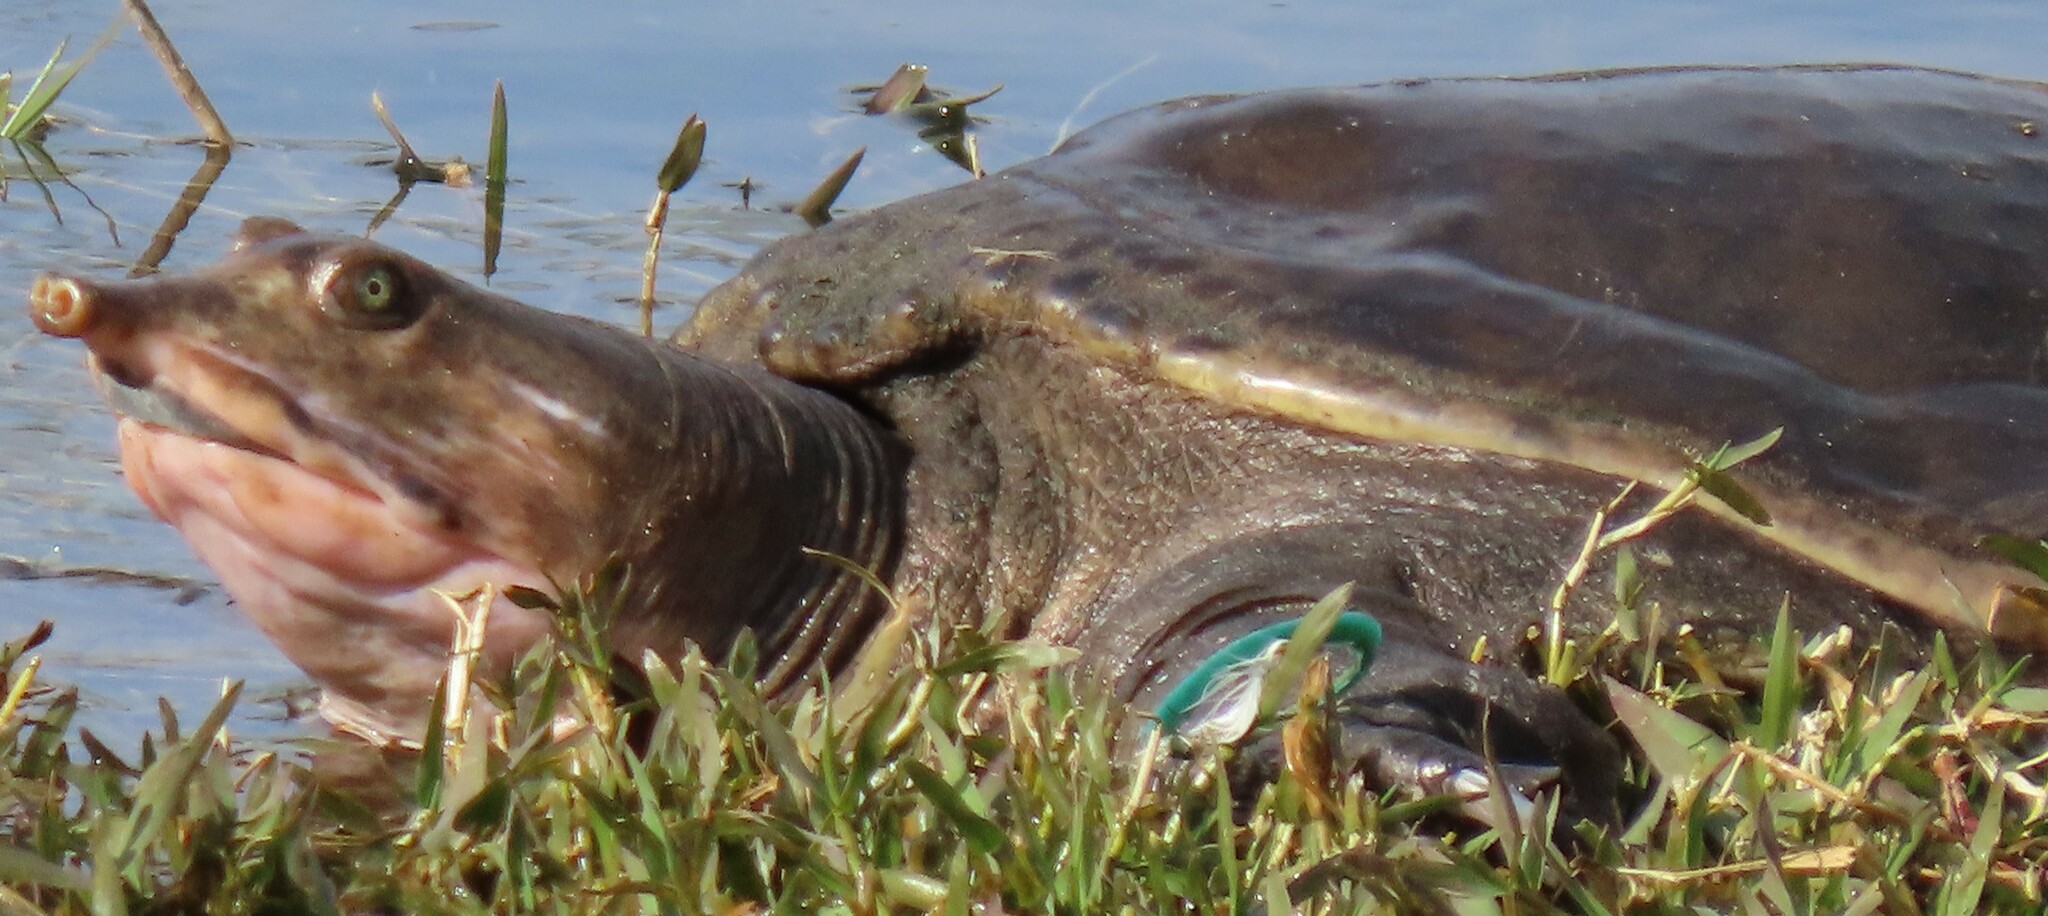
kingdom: Animalia
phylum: Chordata
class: Testudines
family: Trionychidae
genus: Apalone
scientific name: Apalone ferox
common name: Florida softshell turtle
